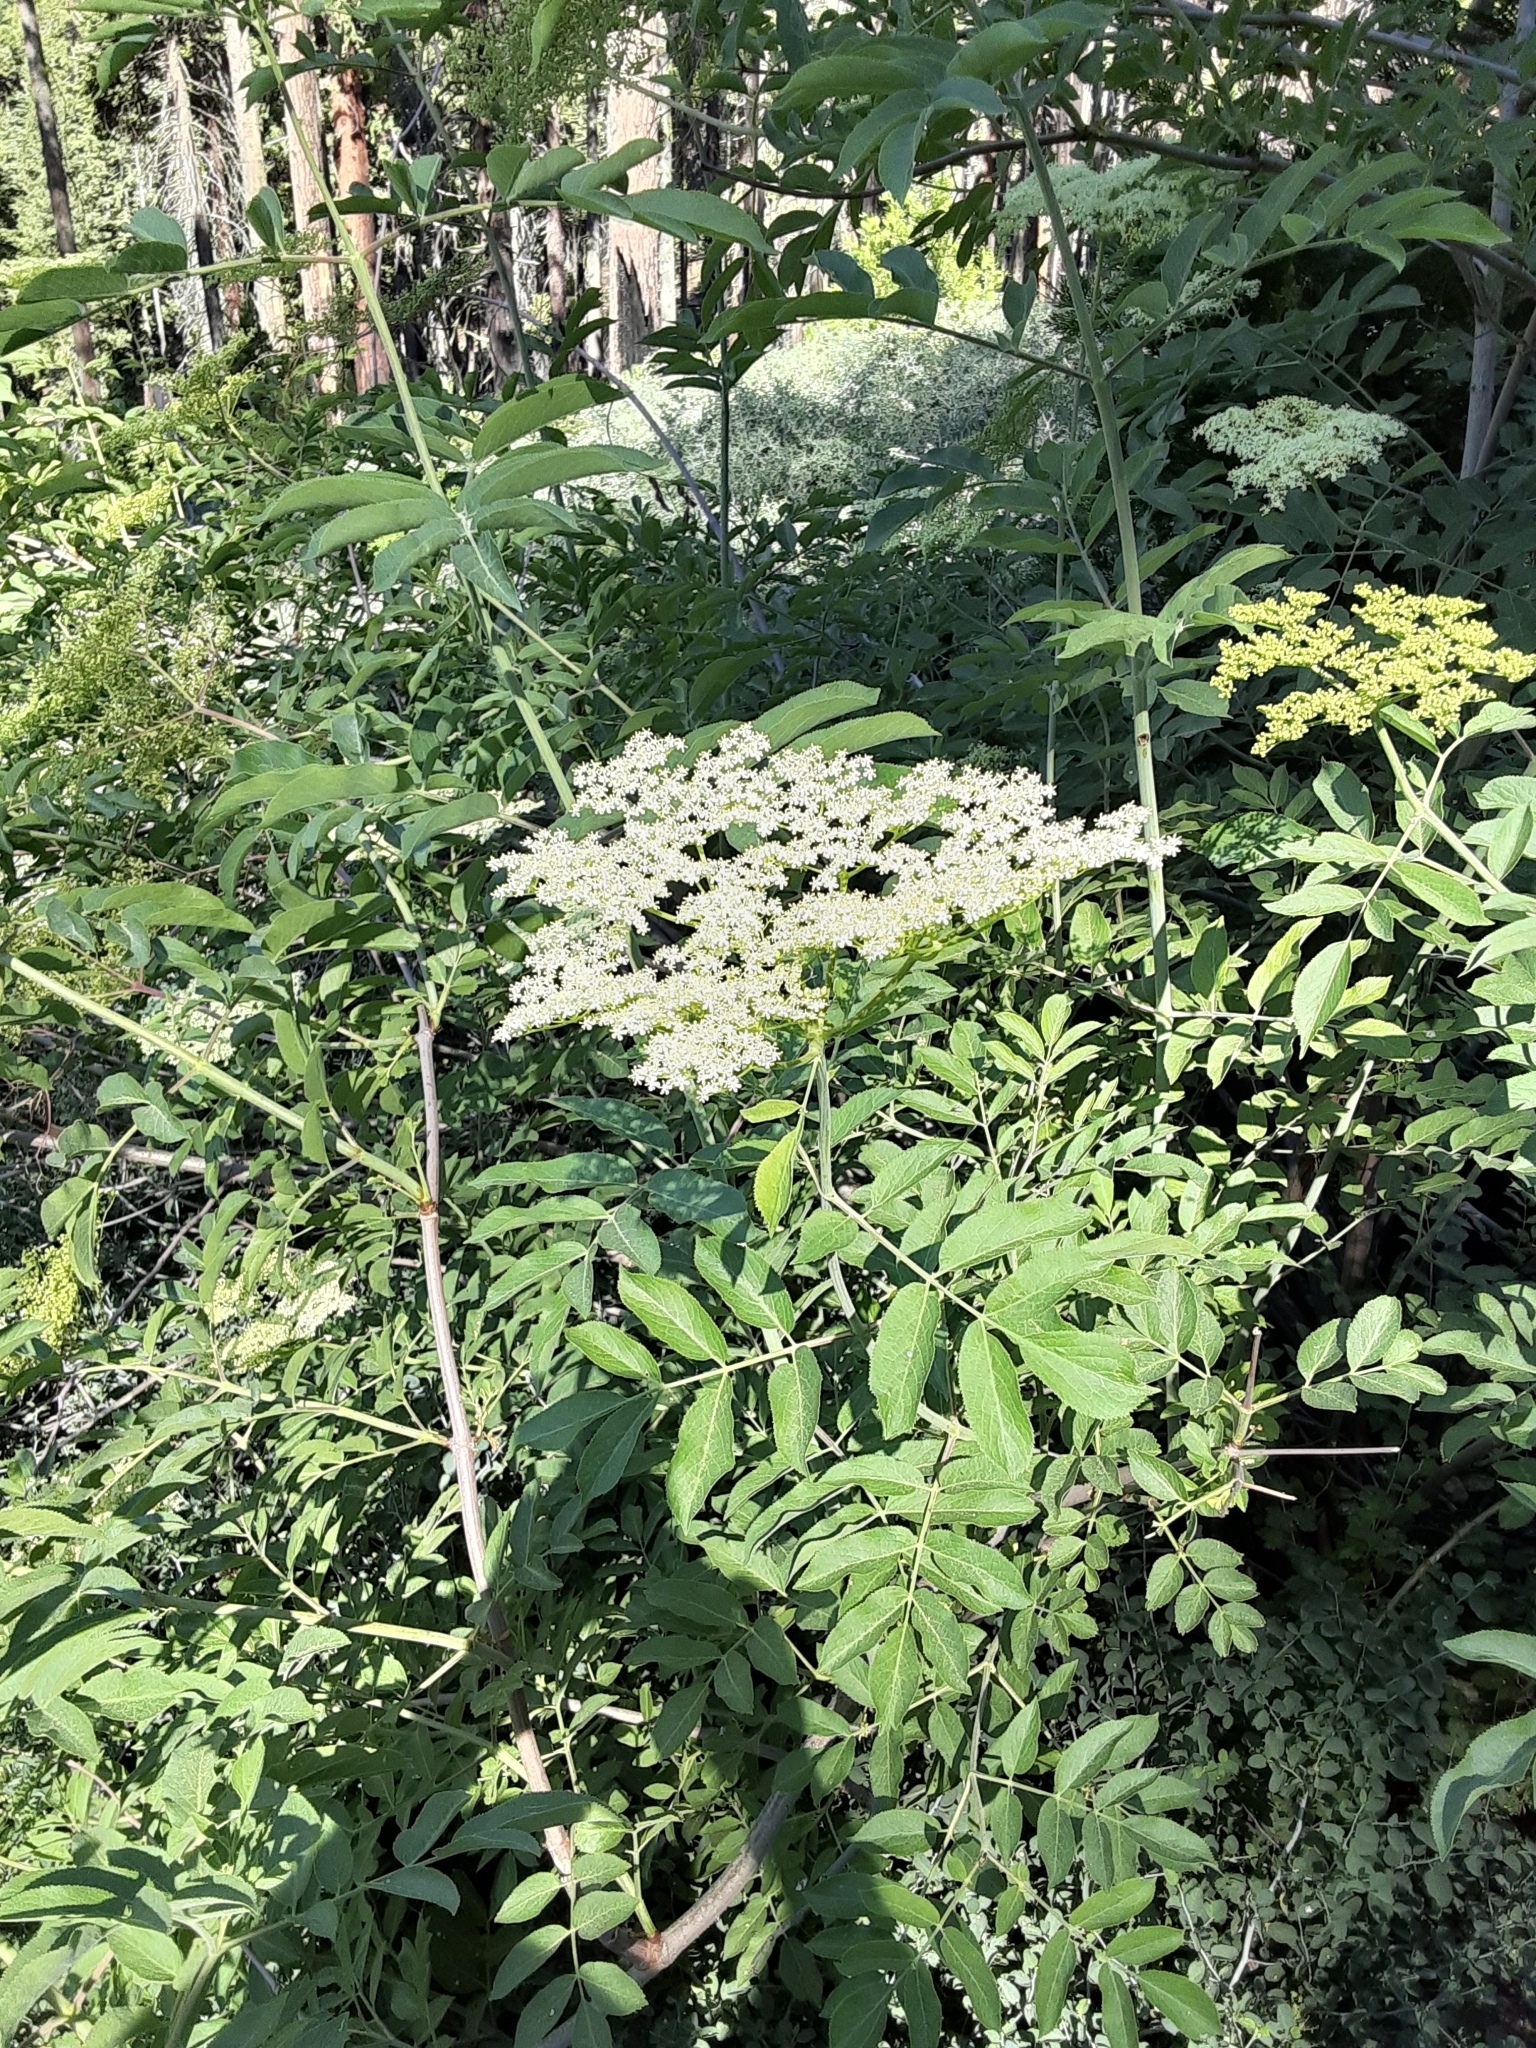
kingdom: Plantae
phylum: Tracheophyta
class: Magnoliopsida
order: Dipsacales
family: Viburnaceae
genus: Sambucus
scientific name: Sambucus cerulea
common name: Blue elder
